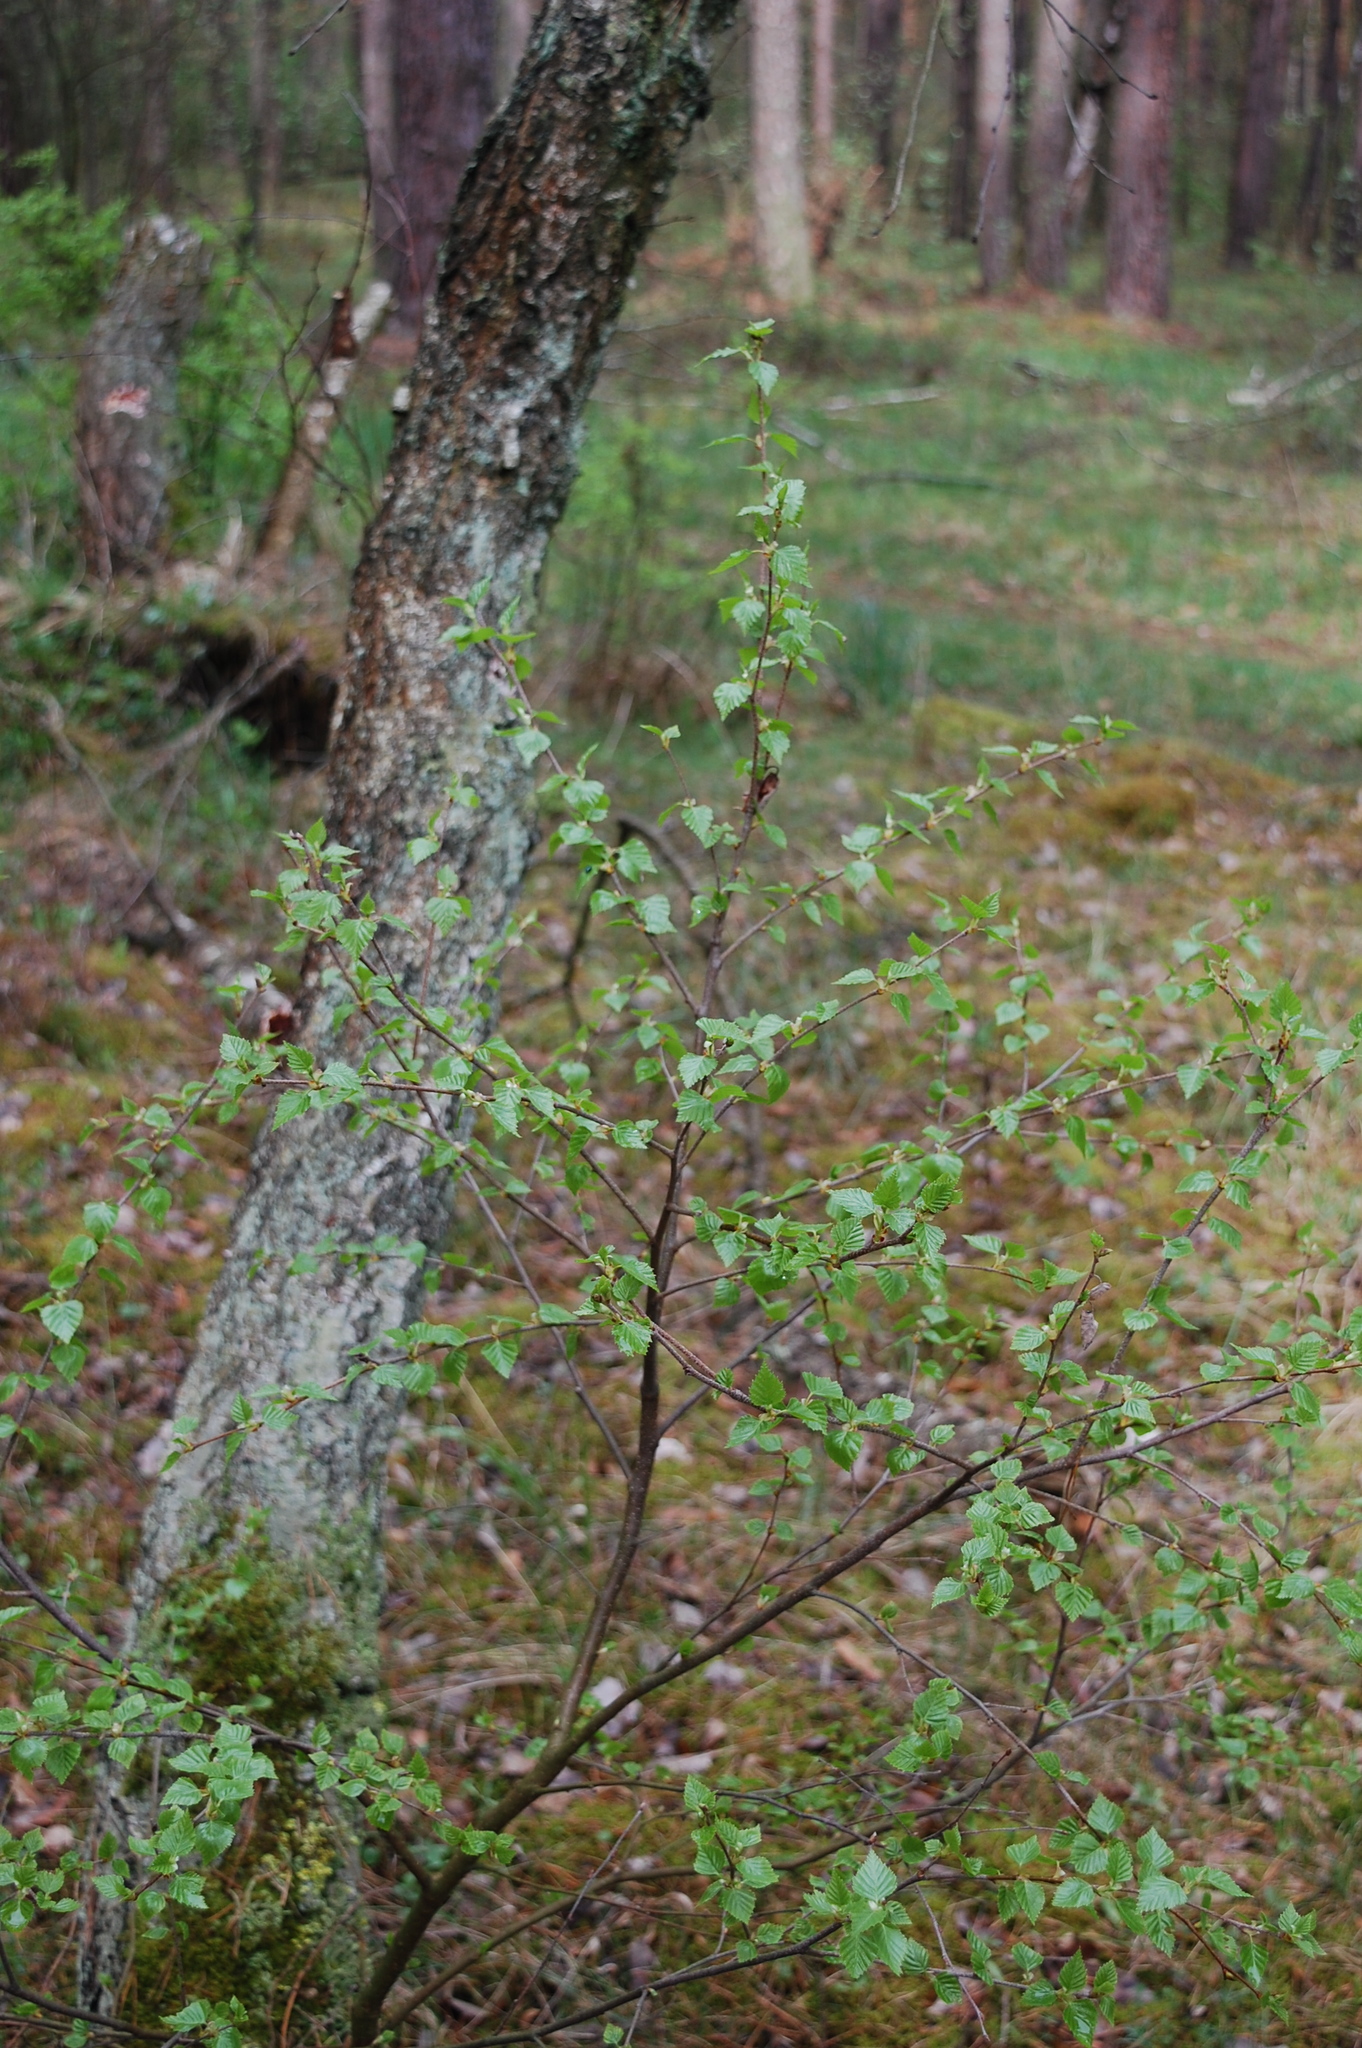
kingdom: Plantae
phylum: Tracheophyta
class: Magnoliopsida
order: Fagales
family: Betulaceae
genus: Betula
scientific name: Betula pendula
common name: Silver birch
